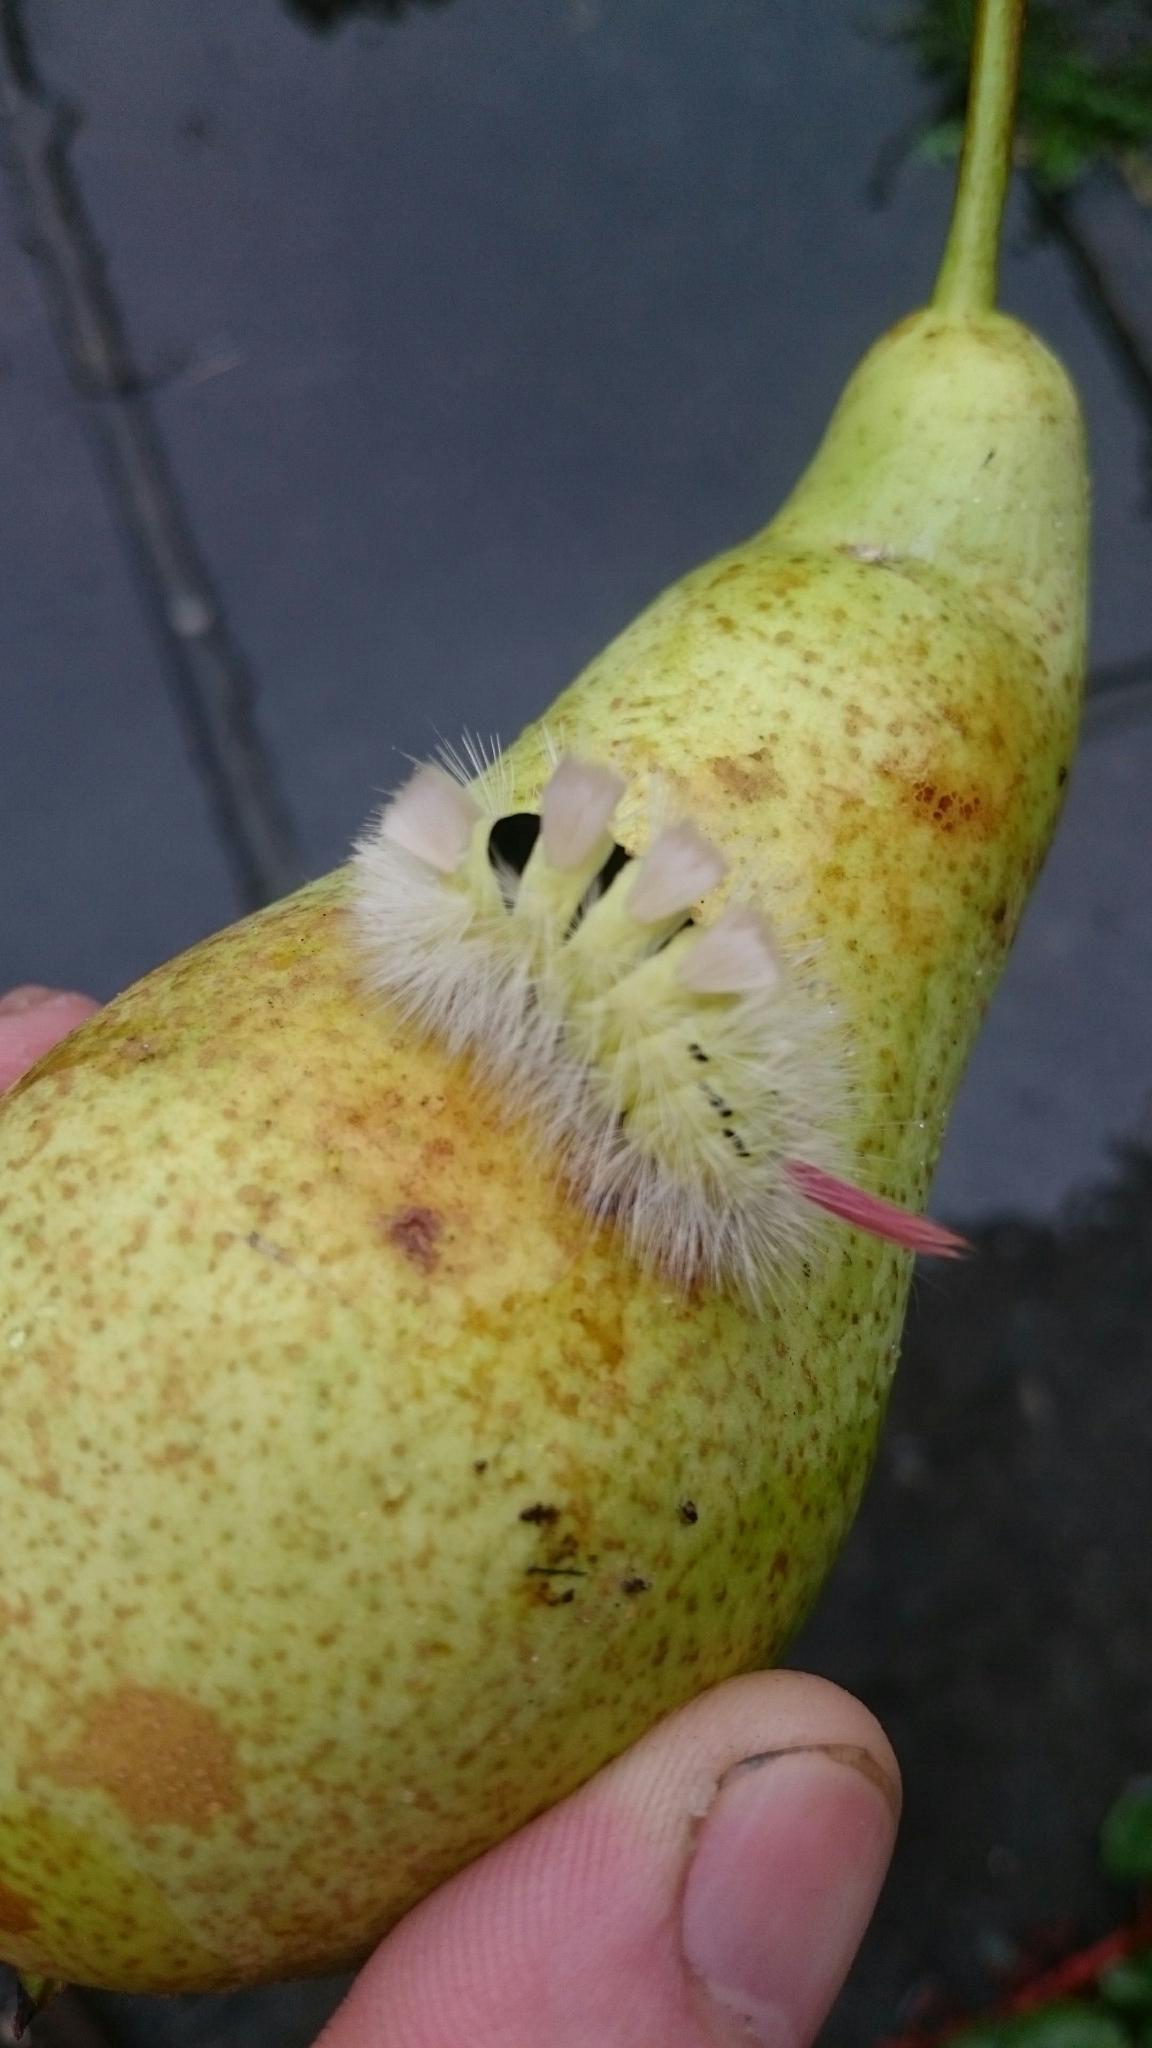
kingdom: Animalia
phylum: Arthropoda
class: Insecta
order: Lepidoptera
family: Erebidae
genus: Calliteara
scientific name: Calliteara pudibunda
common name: Pale tussock
